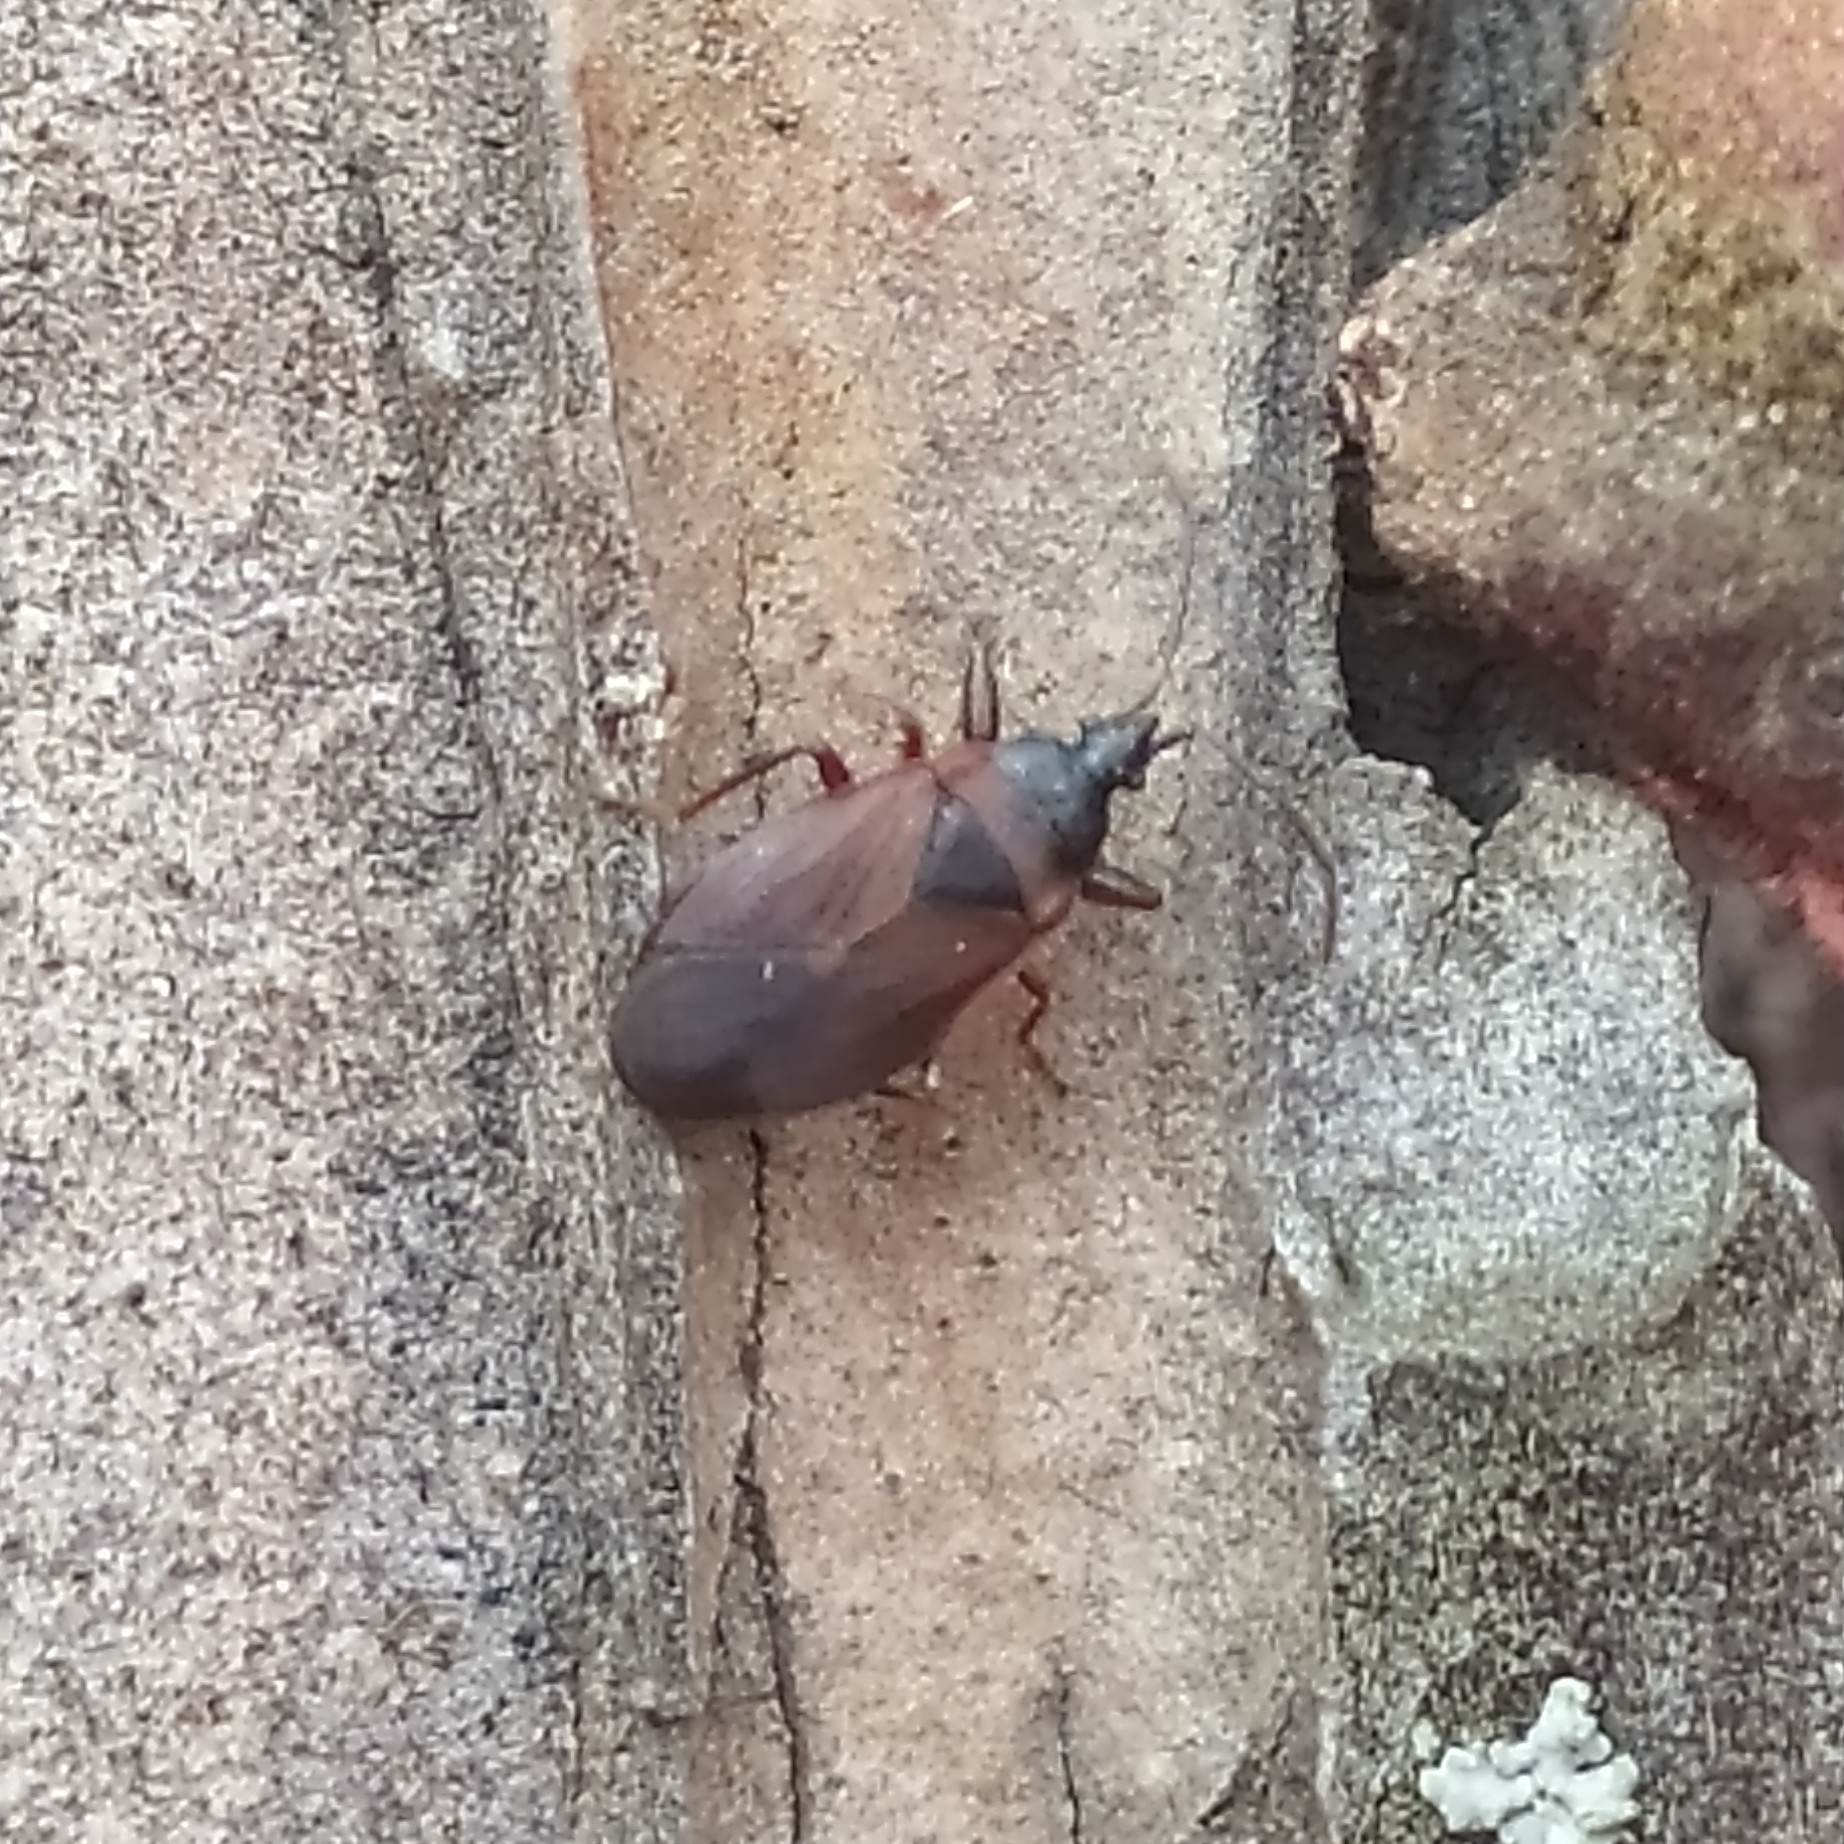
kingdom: Animalia
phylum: Arthropoda
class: Insecta
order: Hemiptera
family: Rhyparochromidae
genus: Gastrodes
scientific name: Gastrodes grossipes
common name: Pine cone bug
